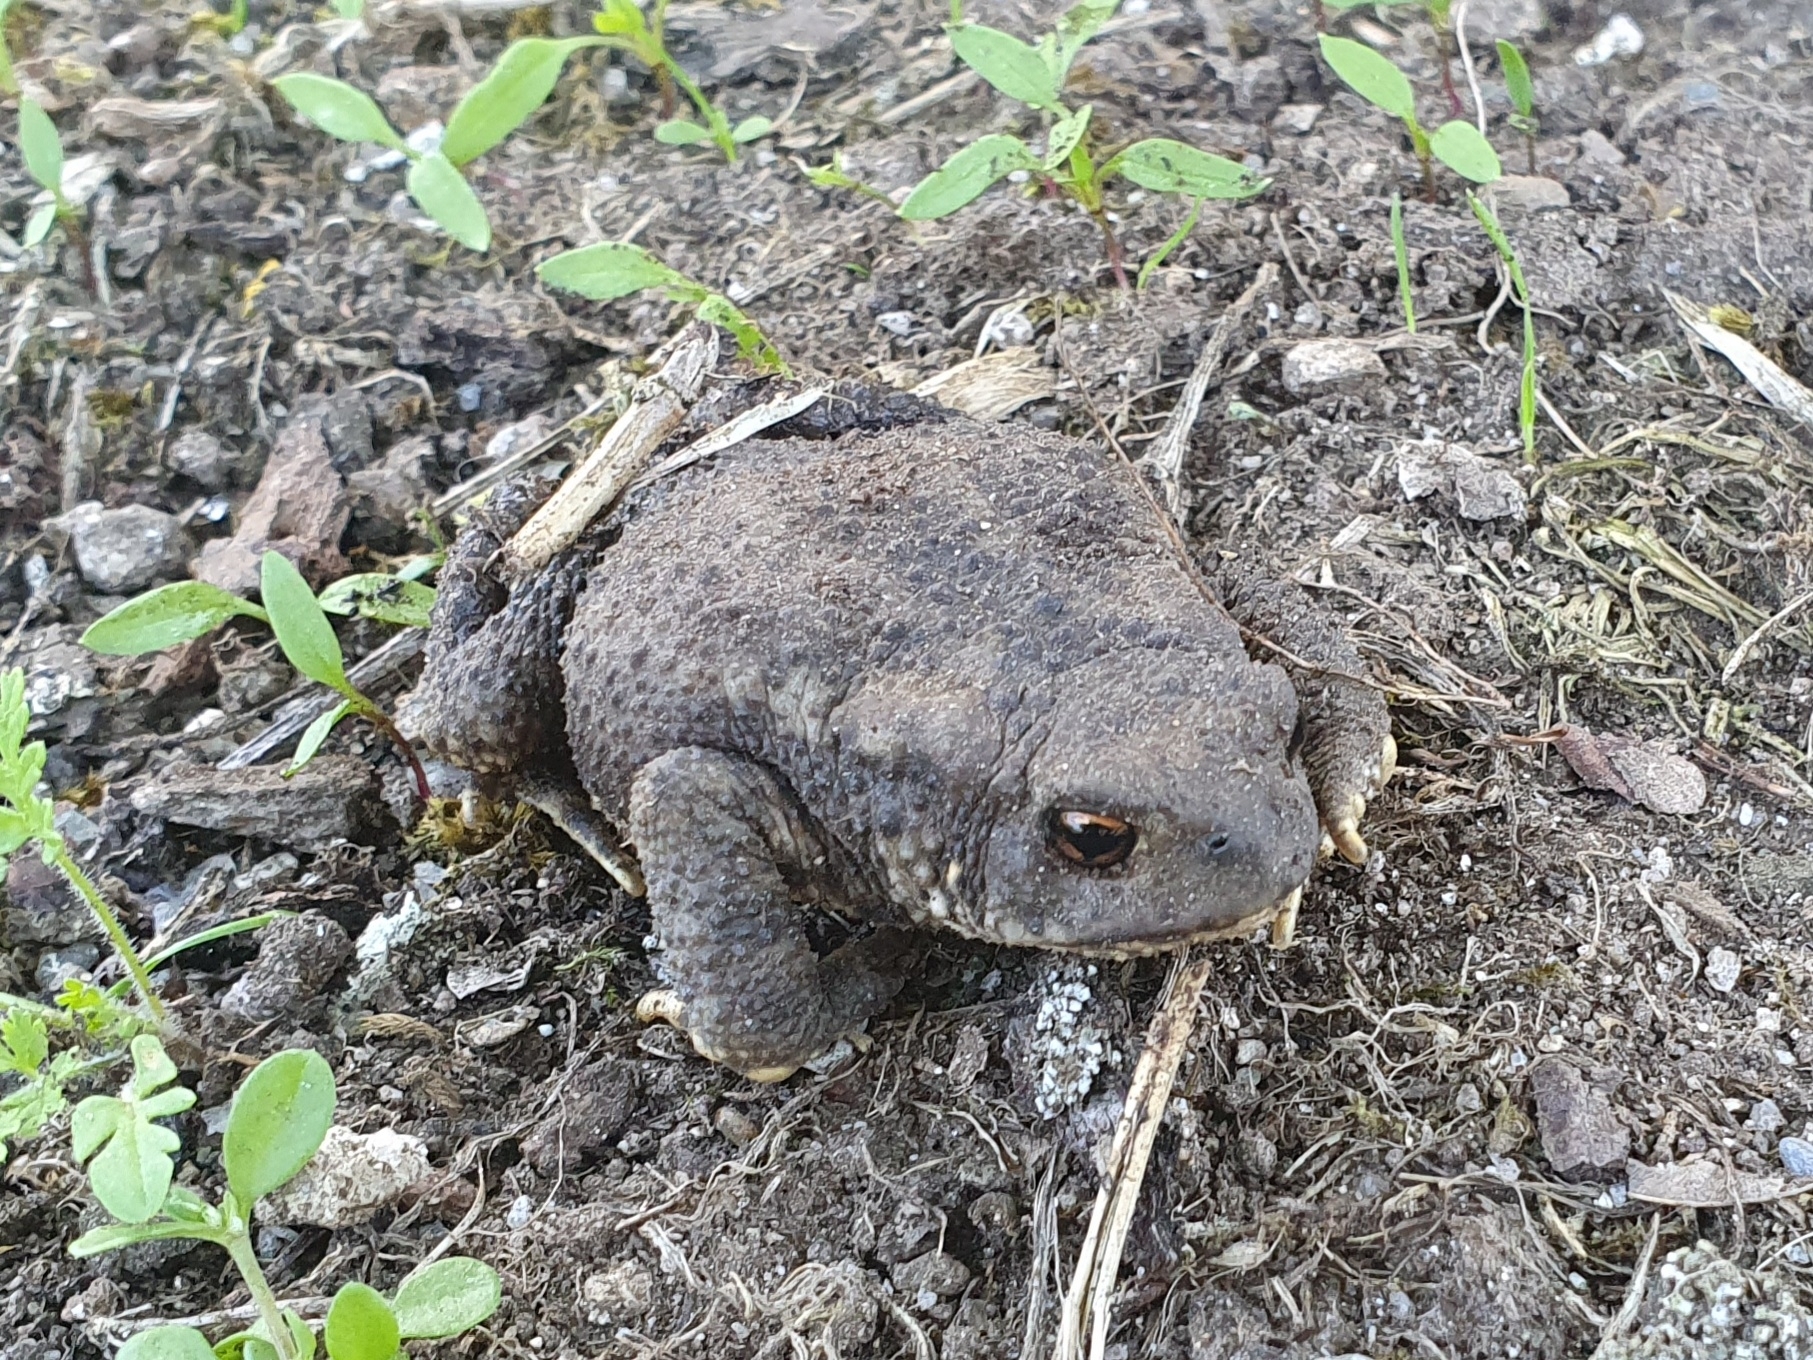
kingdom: Animalia
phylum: Chordata
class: Amphibia
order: Anura
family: Bufonidae
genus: Bufo
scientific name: Bufo spinosus
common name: Western common toad
